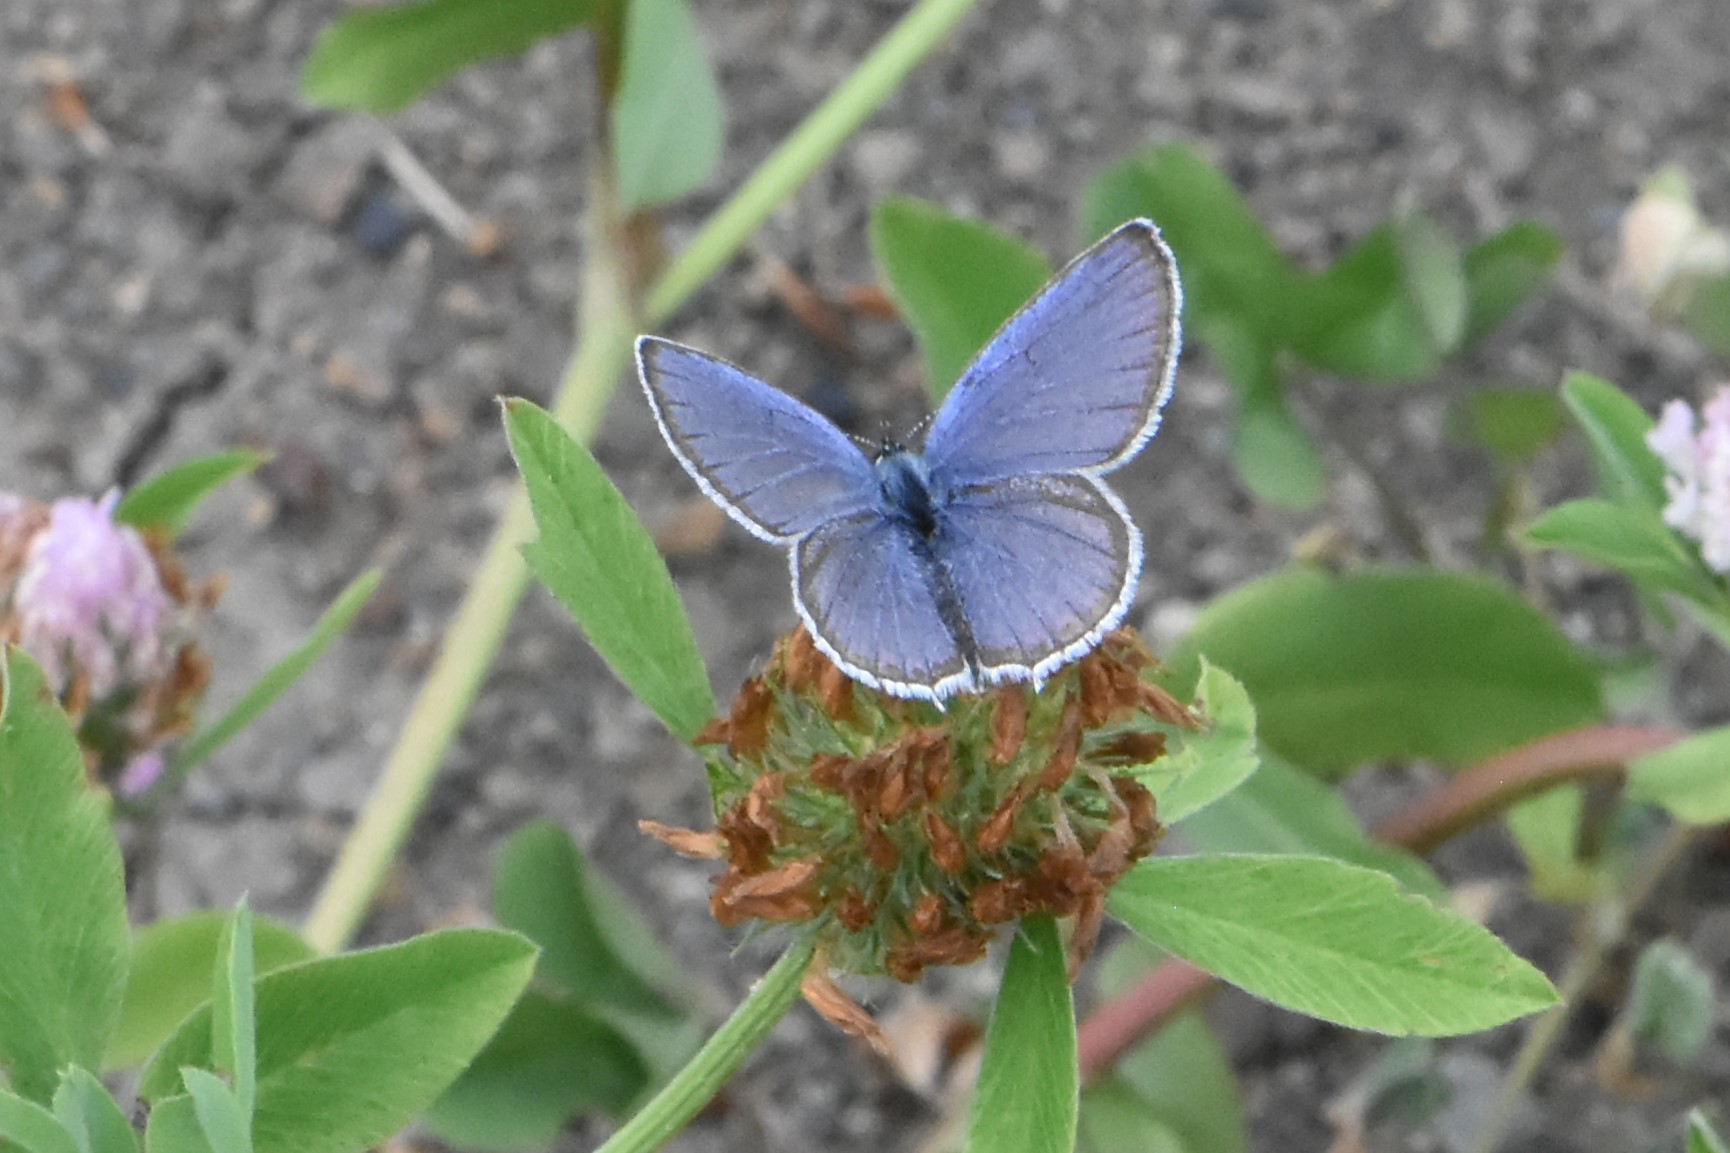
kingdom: Animalia
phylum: Arthropoda
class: Insecta
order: Lepidoptera
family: Lycaenidae
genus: Elkalyce
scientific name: Elkalyce argiades
